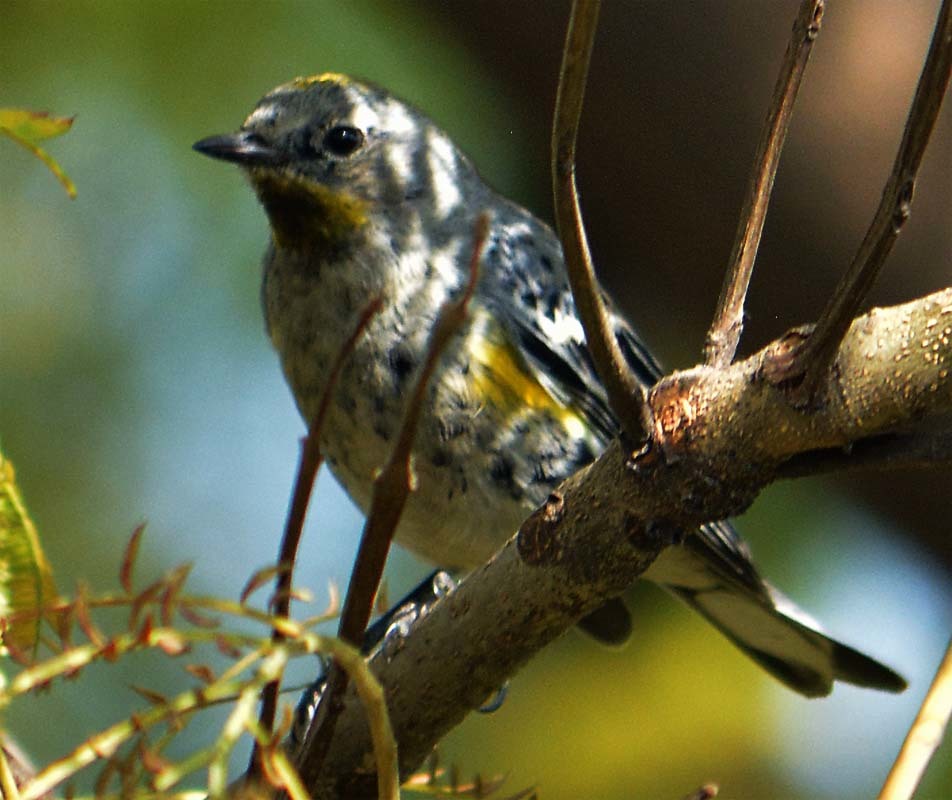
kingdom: Animalia
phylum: Chordata
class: Aves
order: Passeriformes
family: Parulidae
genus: Setophaga
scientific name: Setophaga coronata
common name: Myrtle warbler
